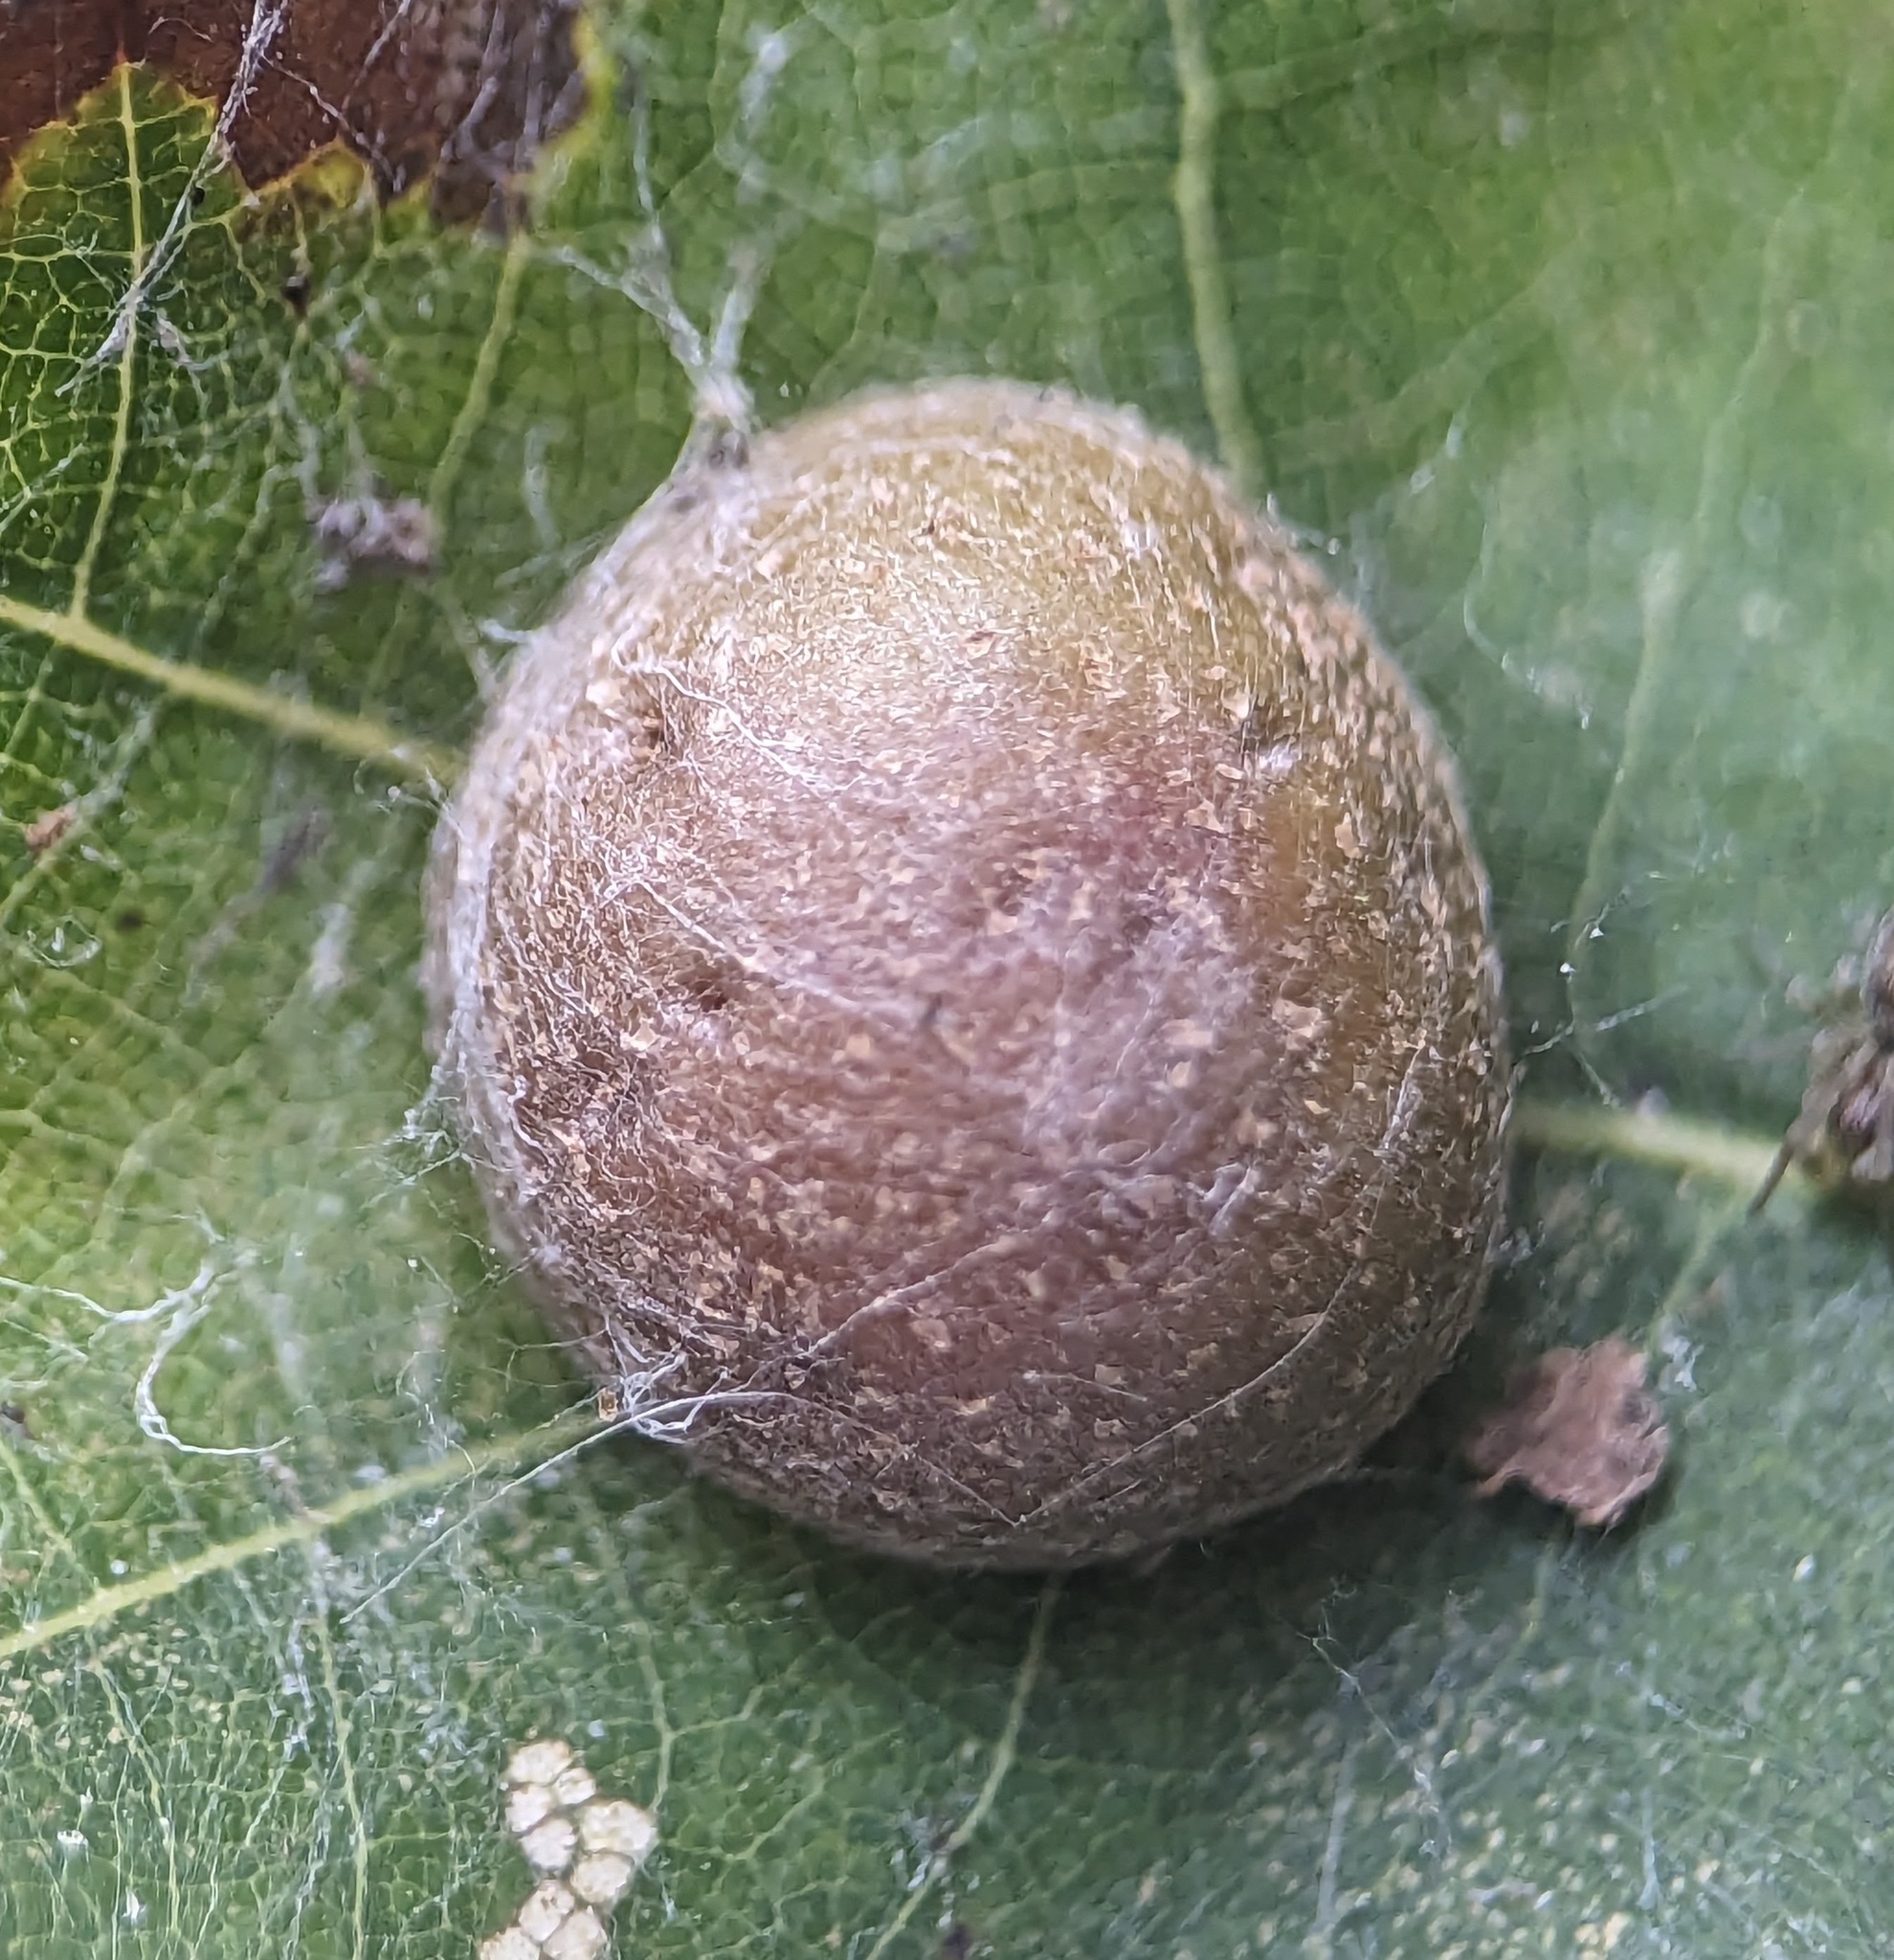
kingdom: Animalia
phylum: Arthropoda
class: Insecta
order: Diptera
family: Cecidomyiidae
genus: Polystepha
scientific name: Polystepha pilulae
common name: Oak leaf gall midge
